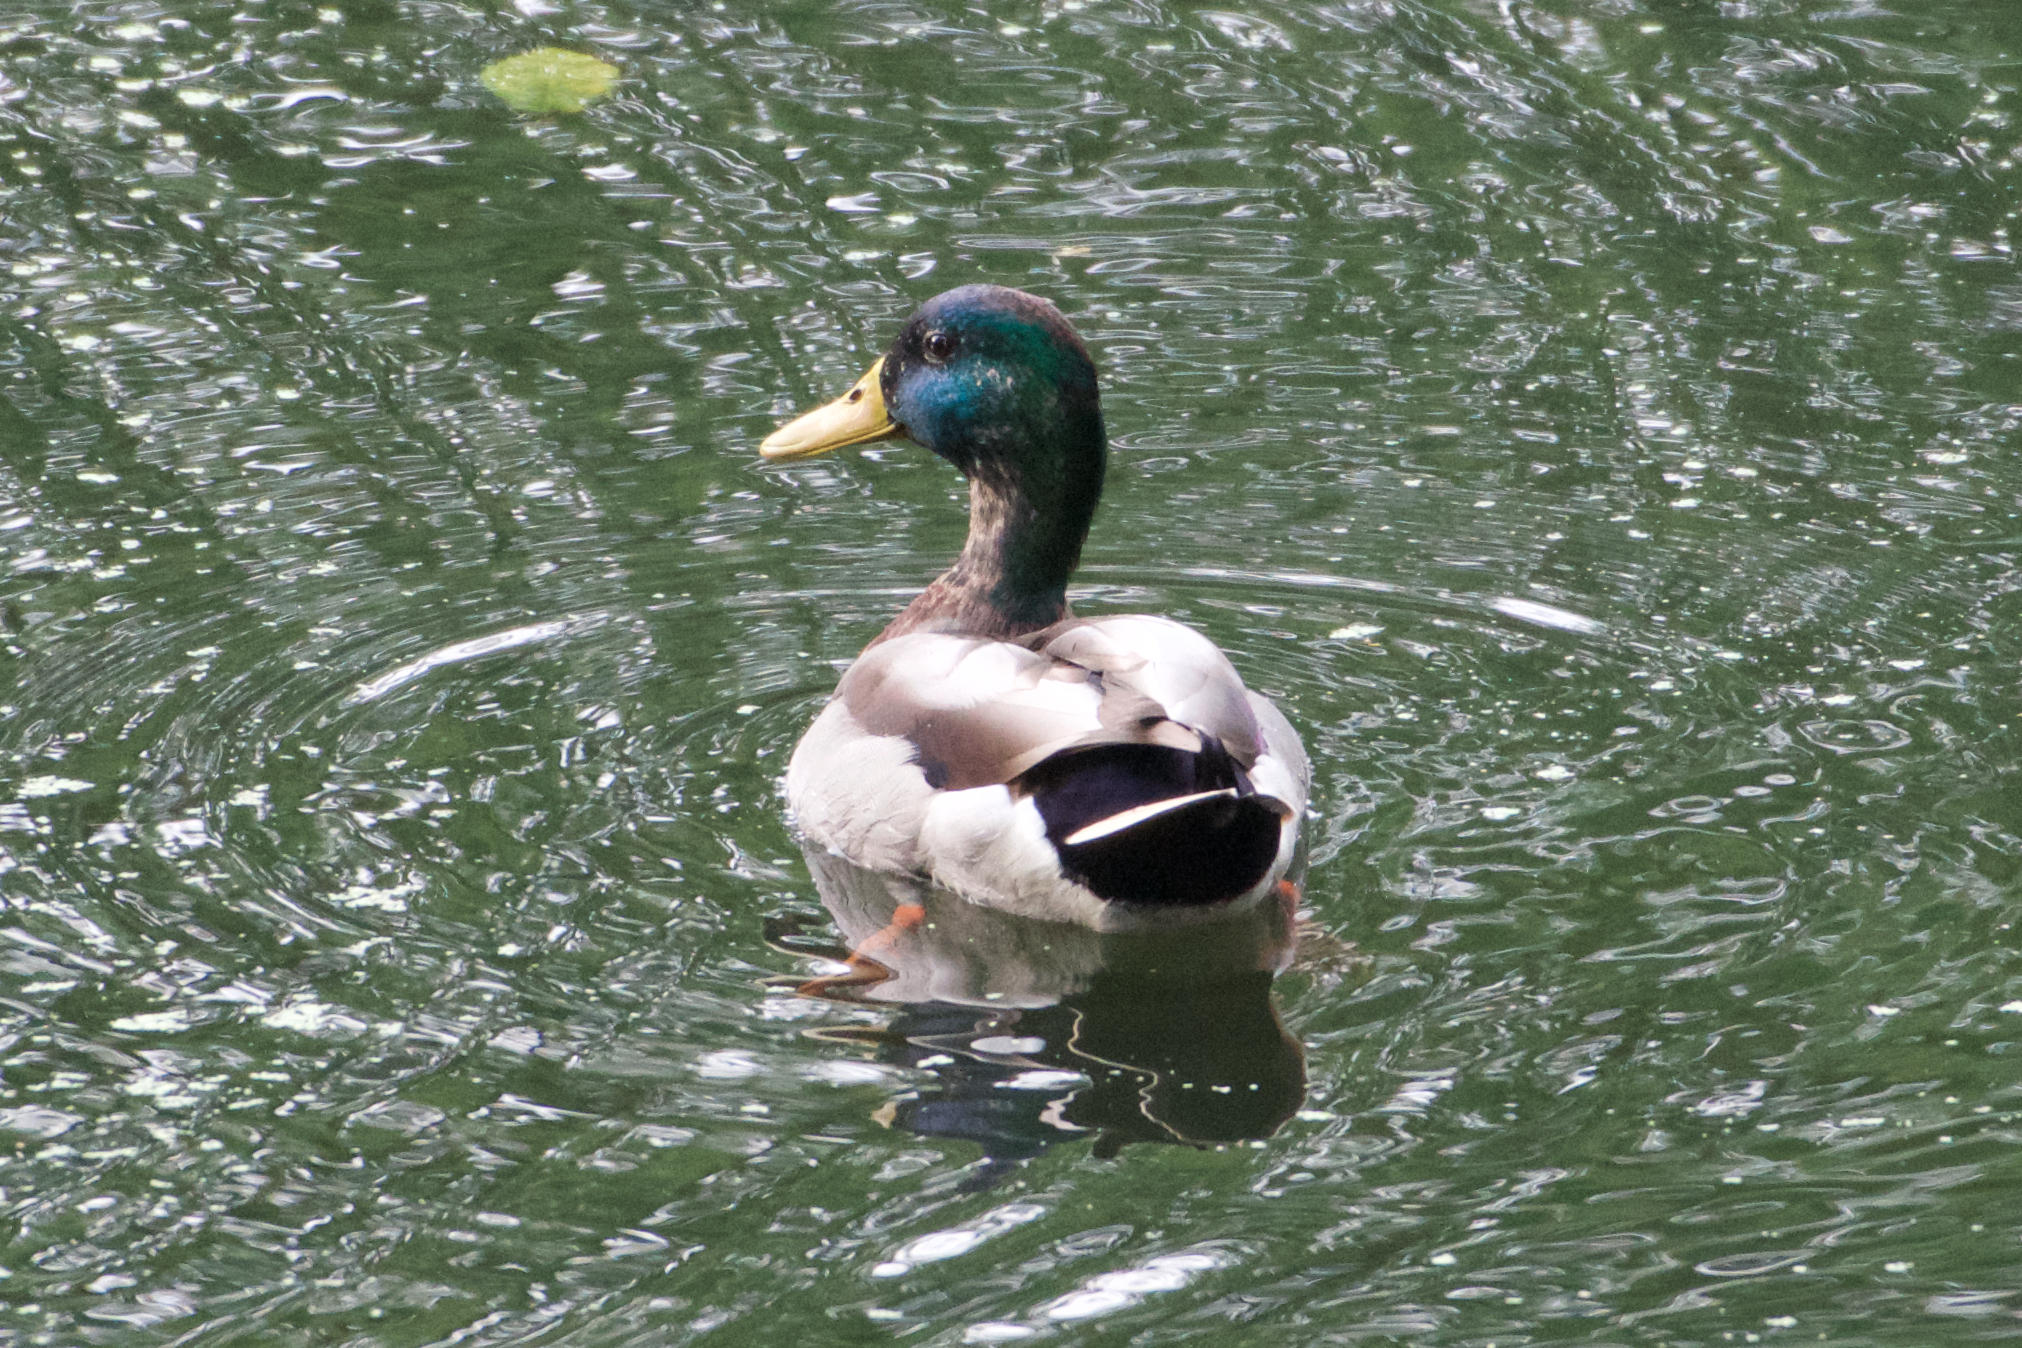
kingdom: Animalia
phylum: Chordata
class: Aves
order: Anseriformes
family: Anatidae
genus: Anas
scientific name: Anas platyrhynchos
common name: Mallard
